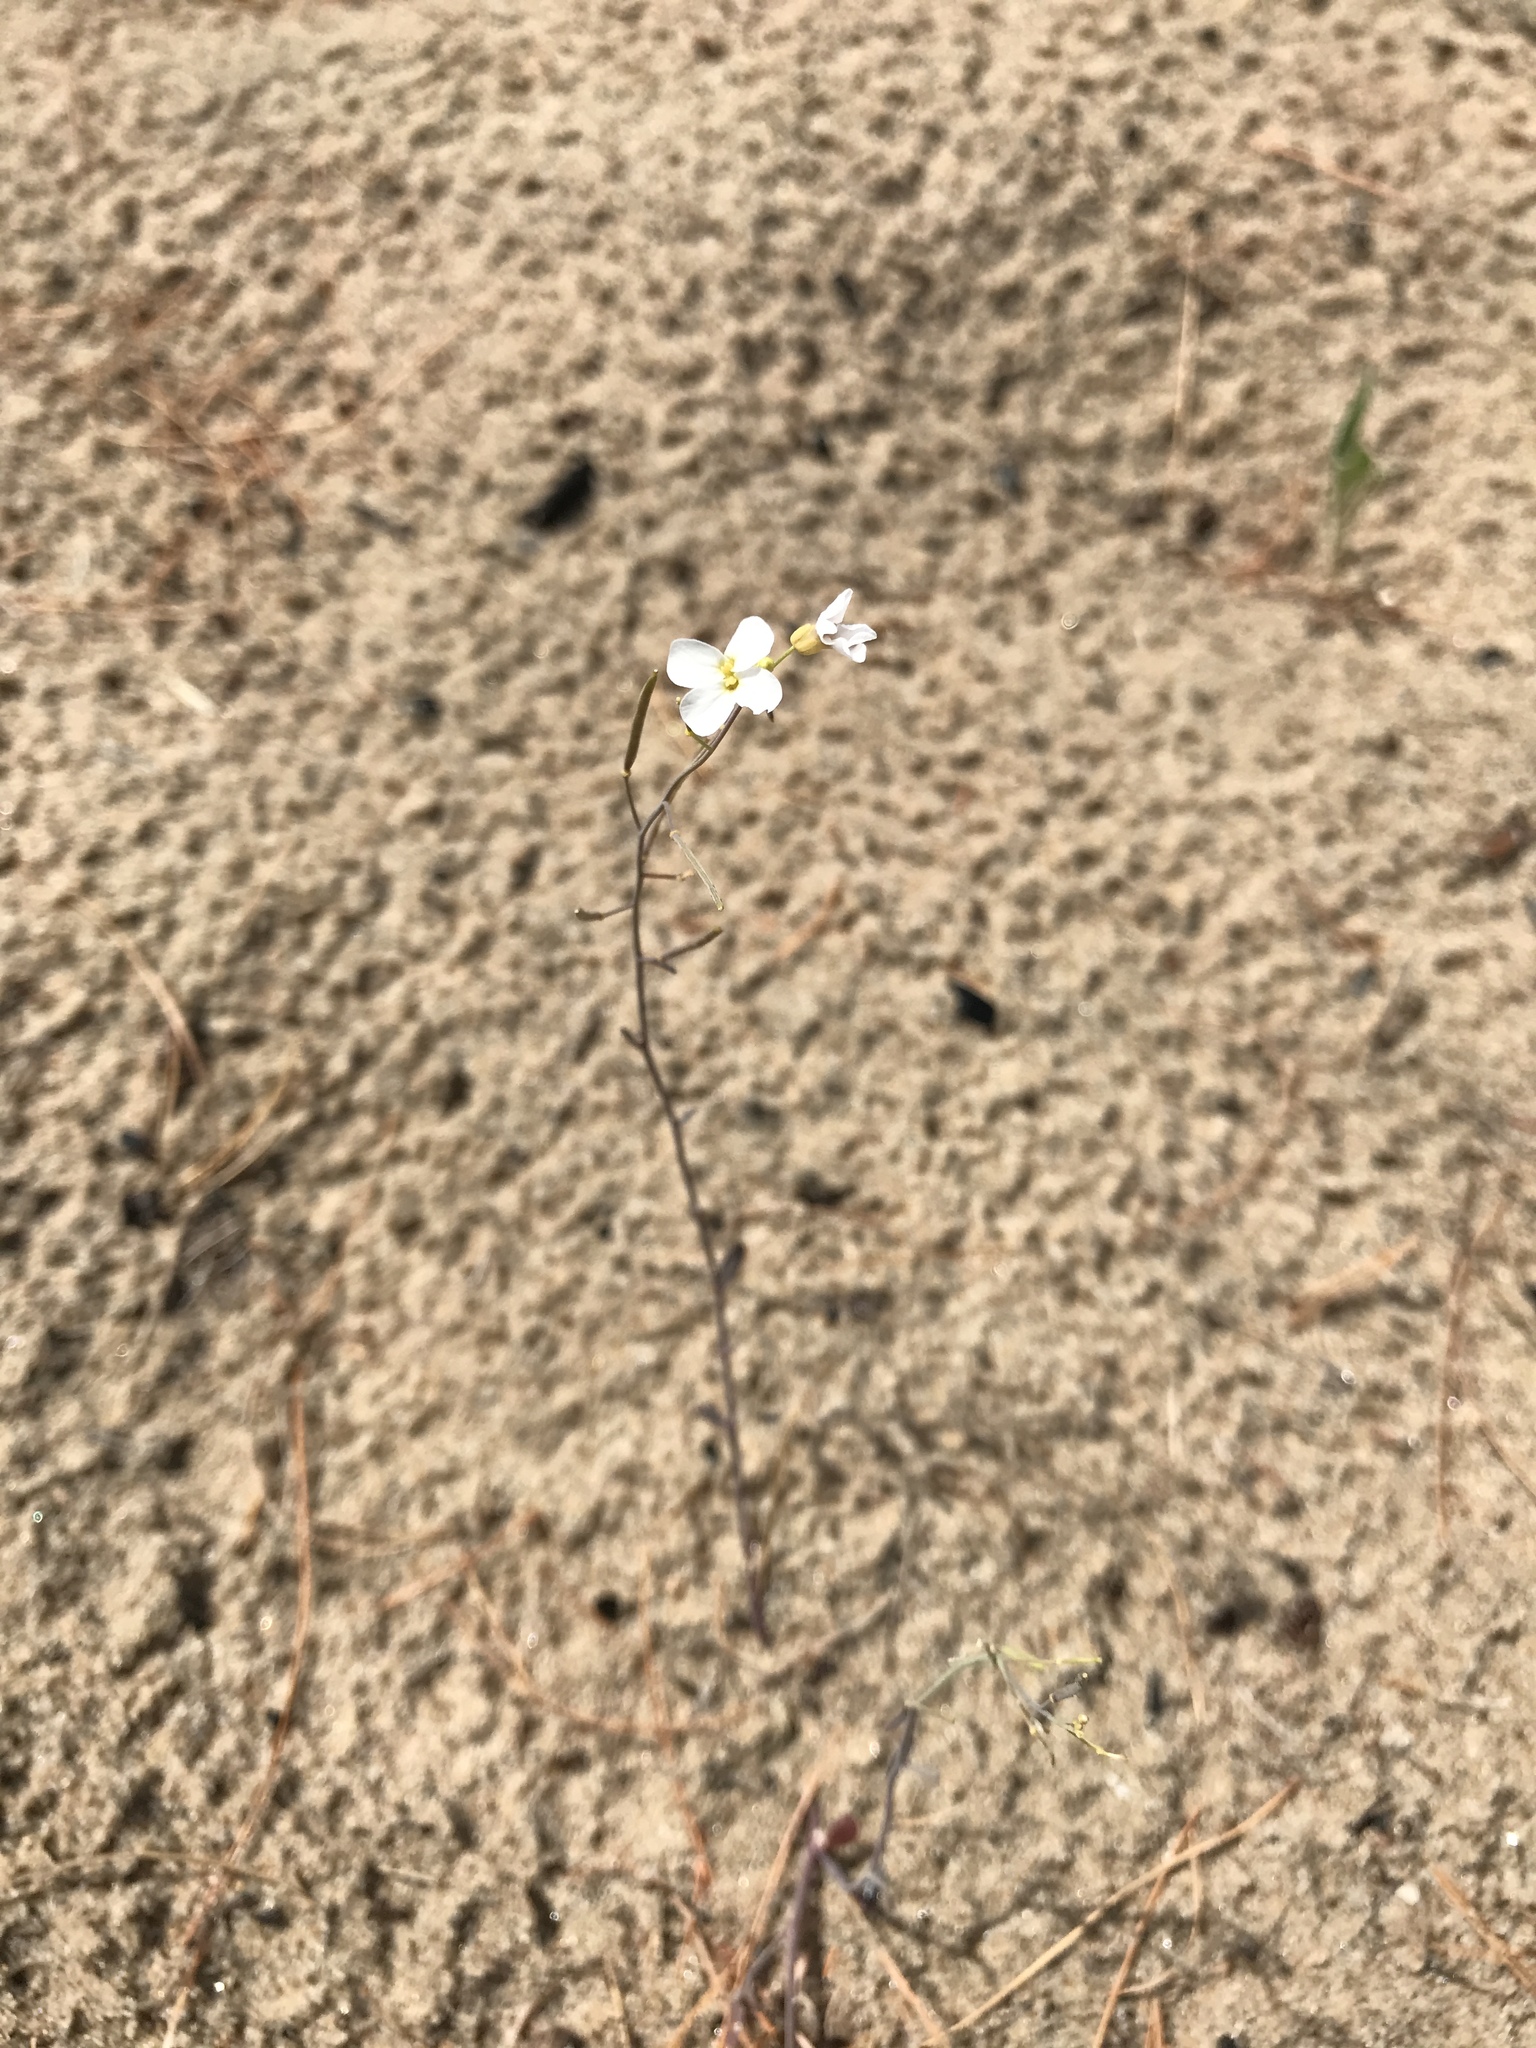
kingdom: Plantae
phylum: Tracheophyta
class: Magnoliopsida
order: Brassicales
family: Brassicaceae
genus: Arabidopsis
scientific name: Arabidopsis lyrata
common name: Lyrate rockcress
